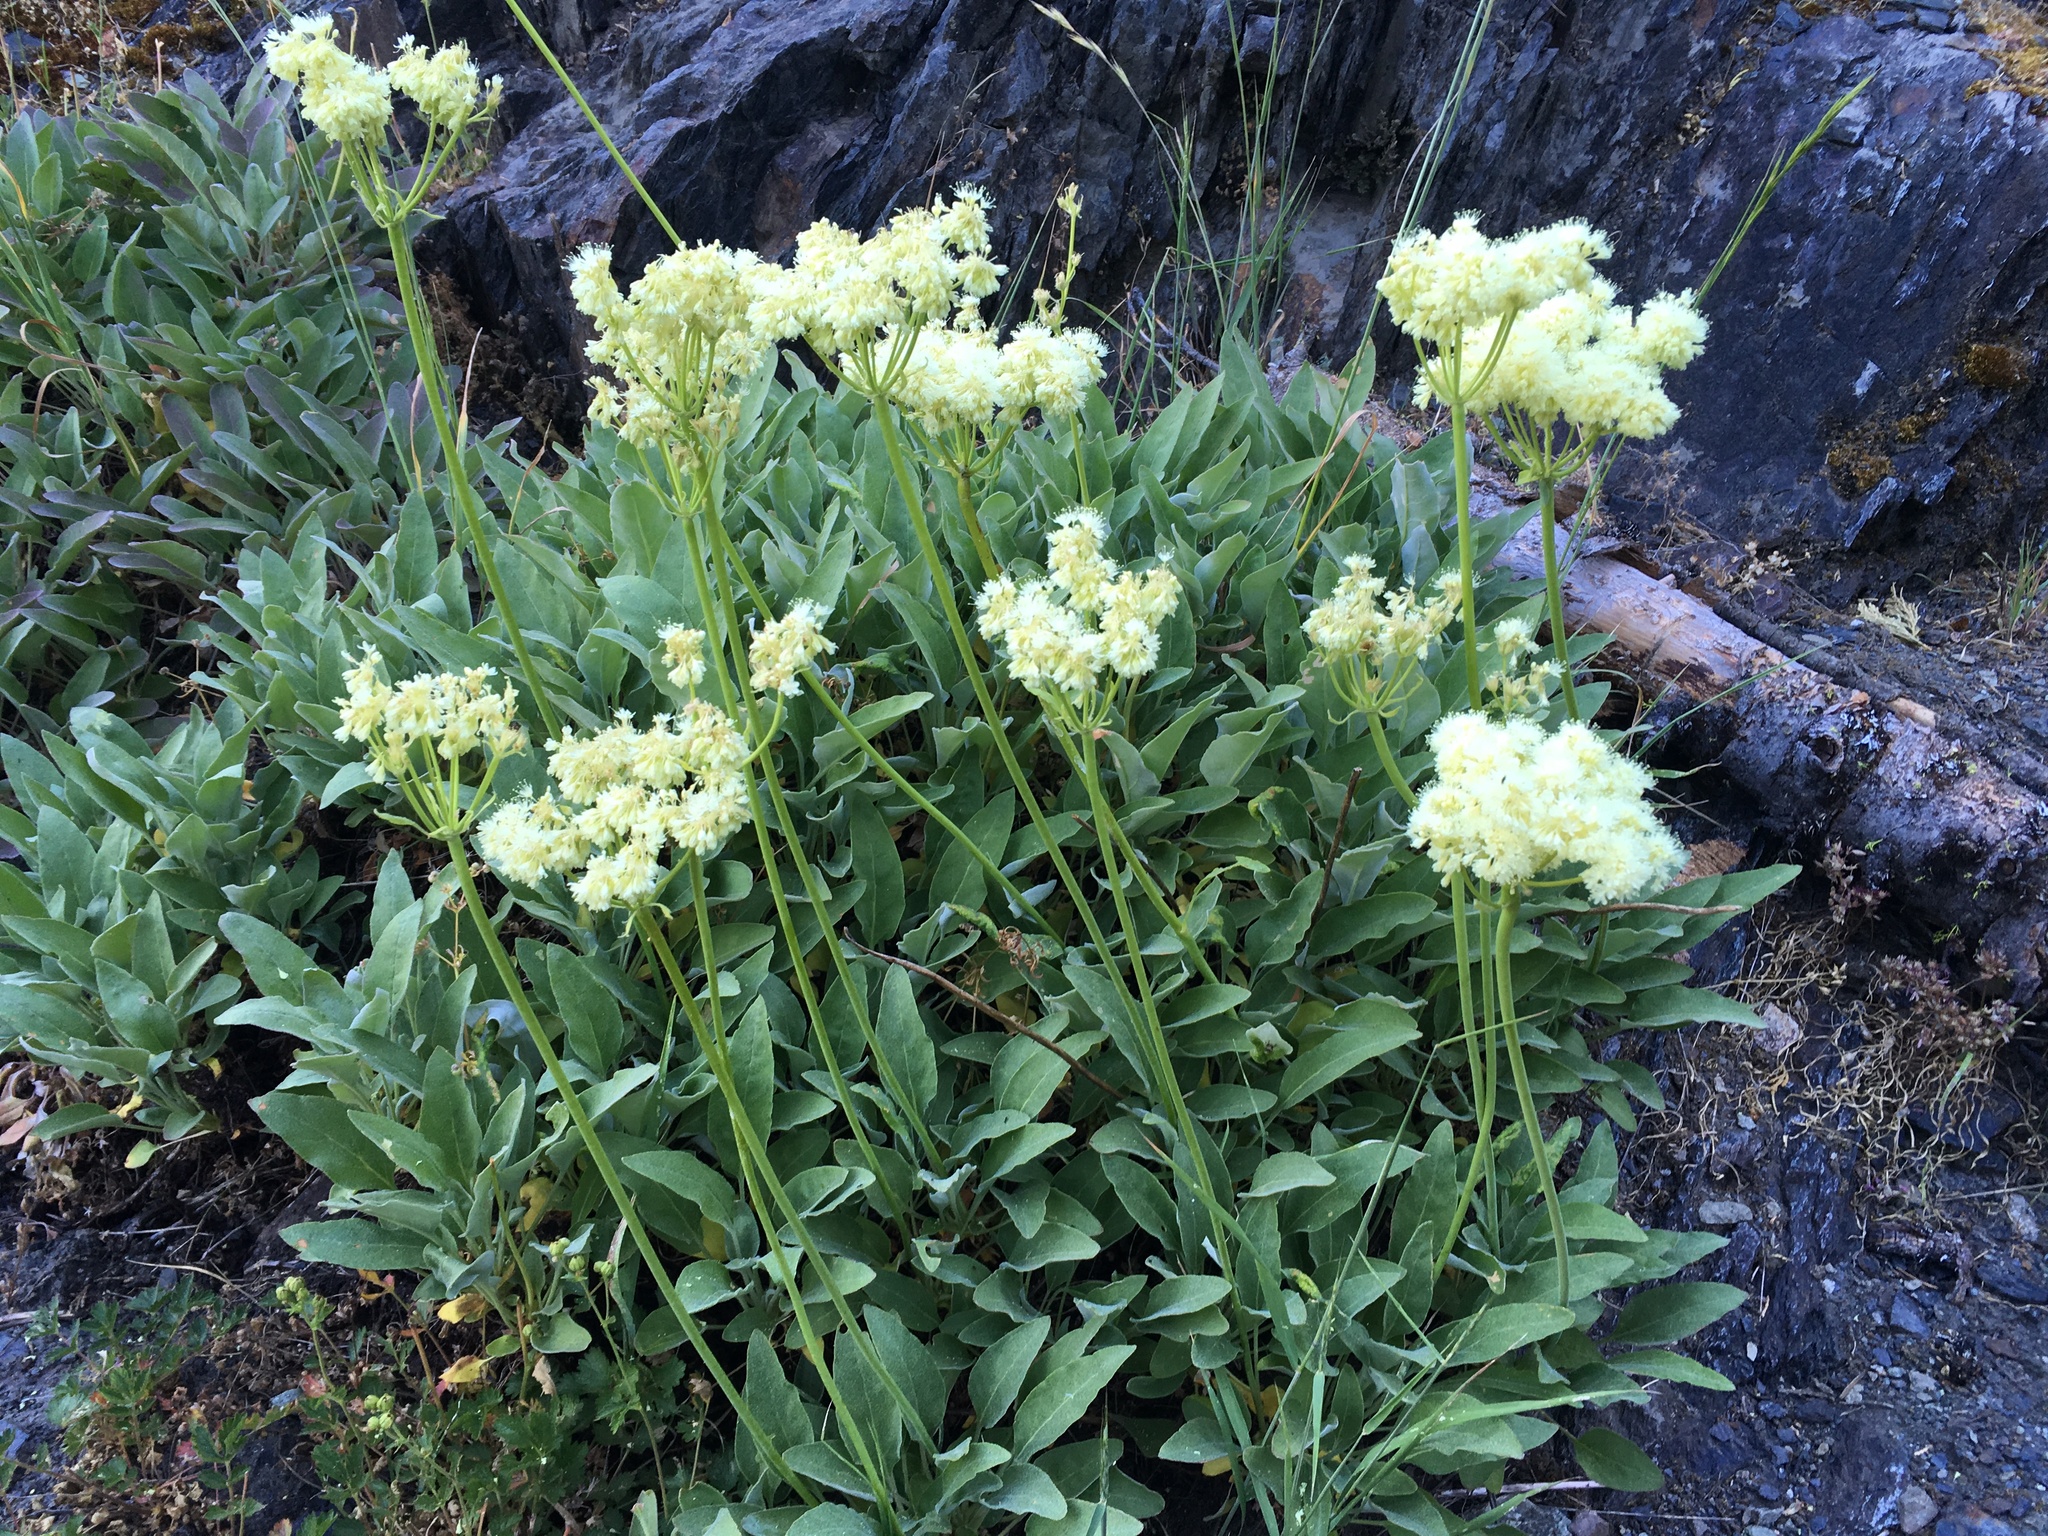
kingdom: Plantae
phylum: Tracheophyta
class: Magnoliopsida
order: Caryophyllales
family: Polygonaceae
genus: Eriogonum
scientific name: Eriogonum compositum
